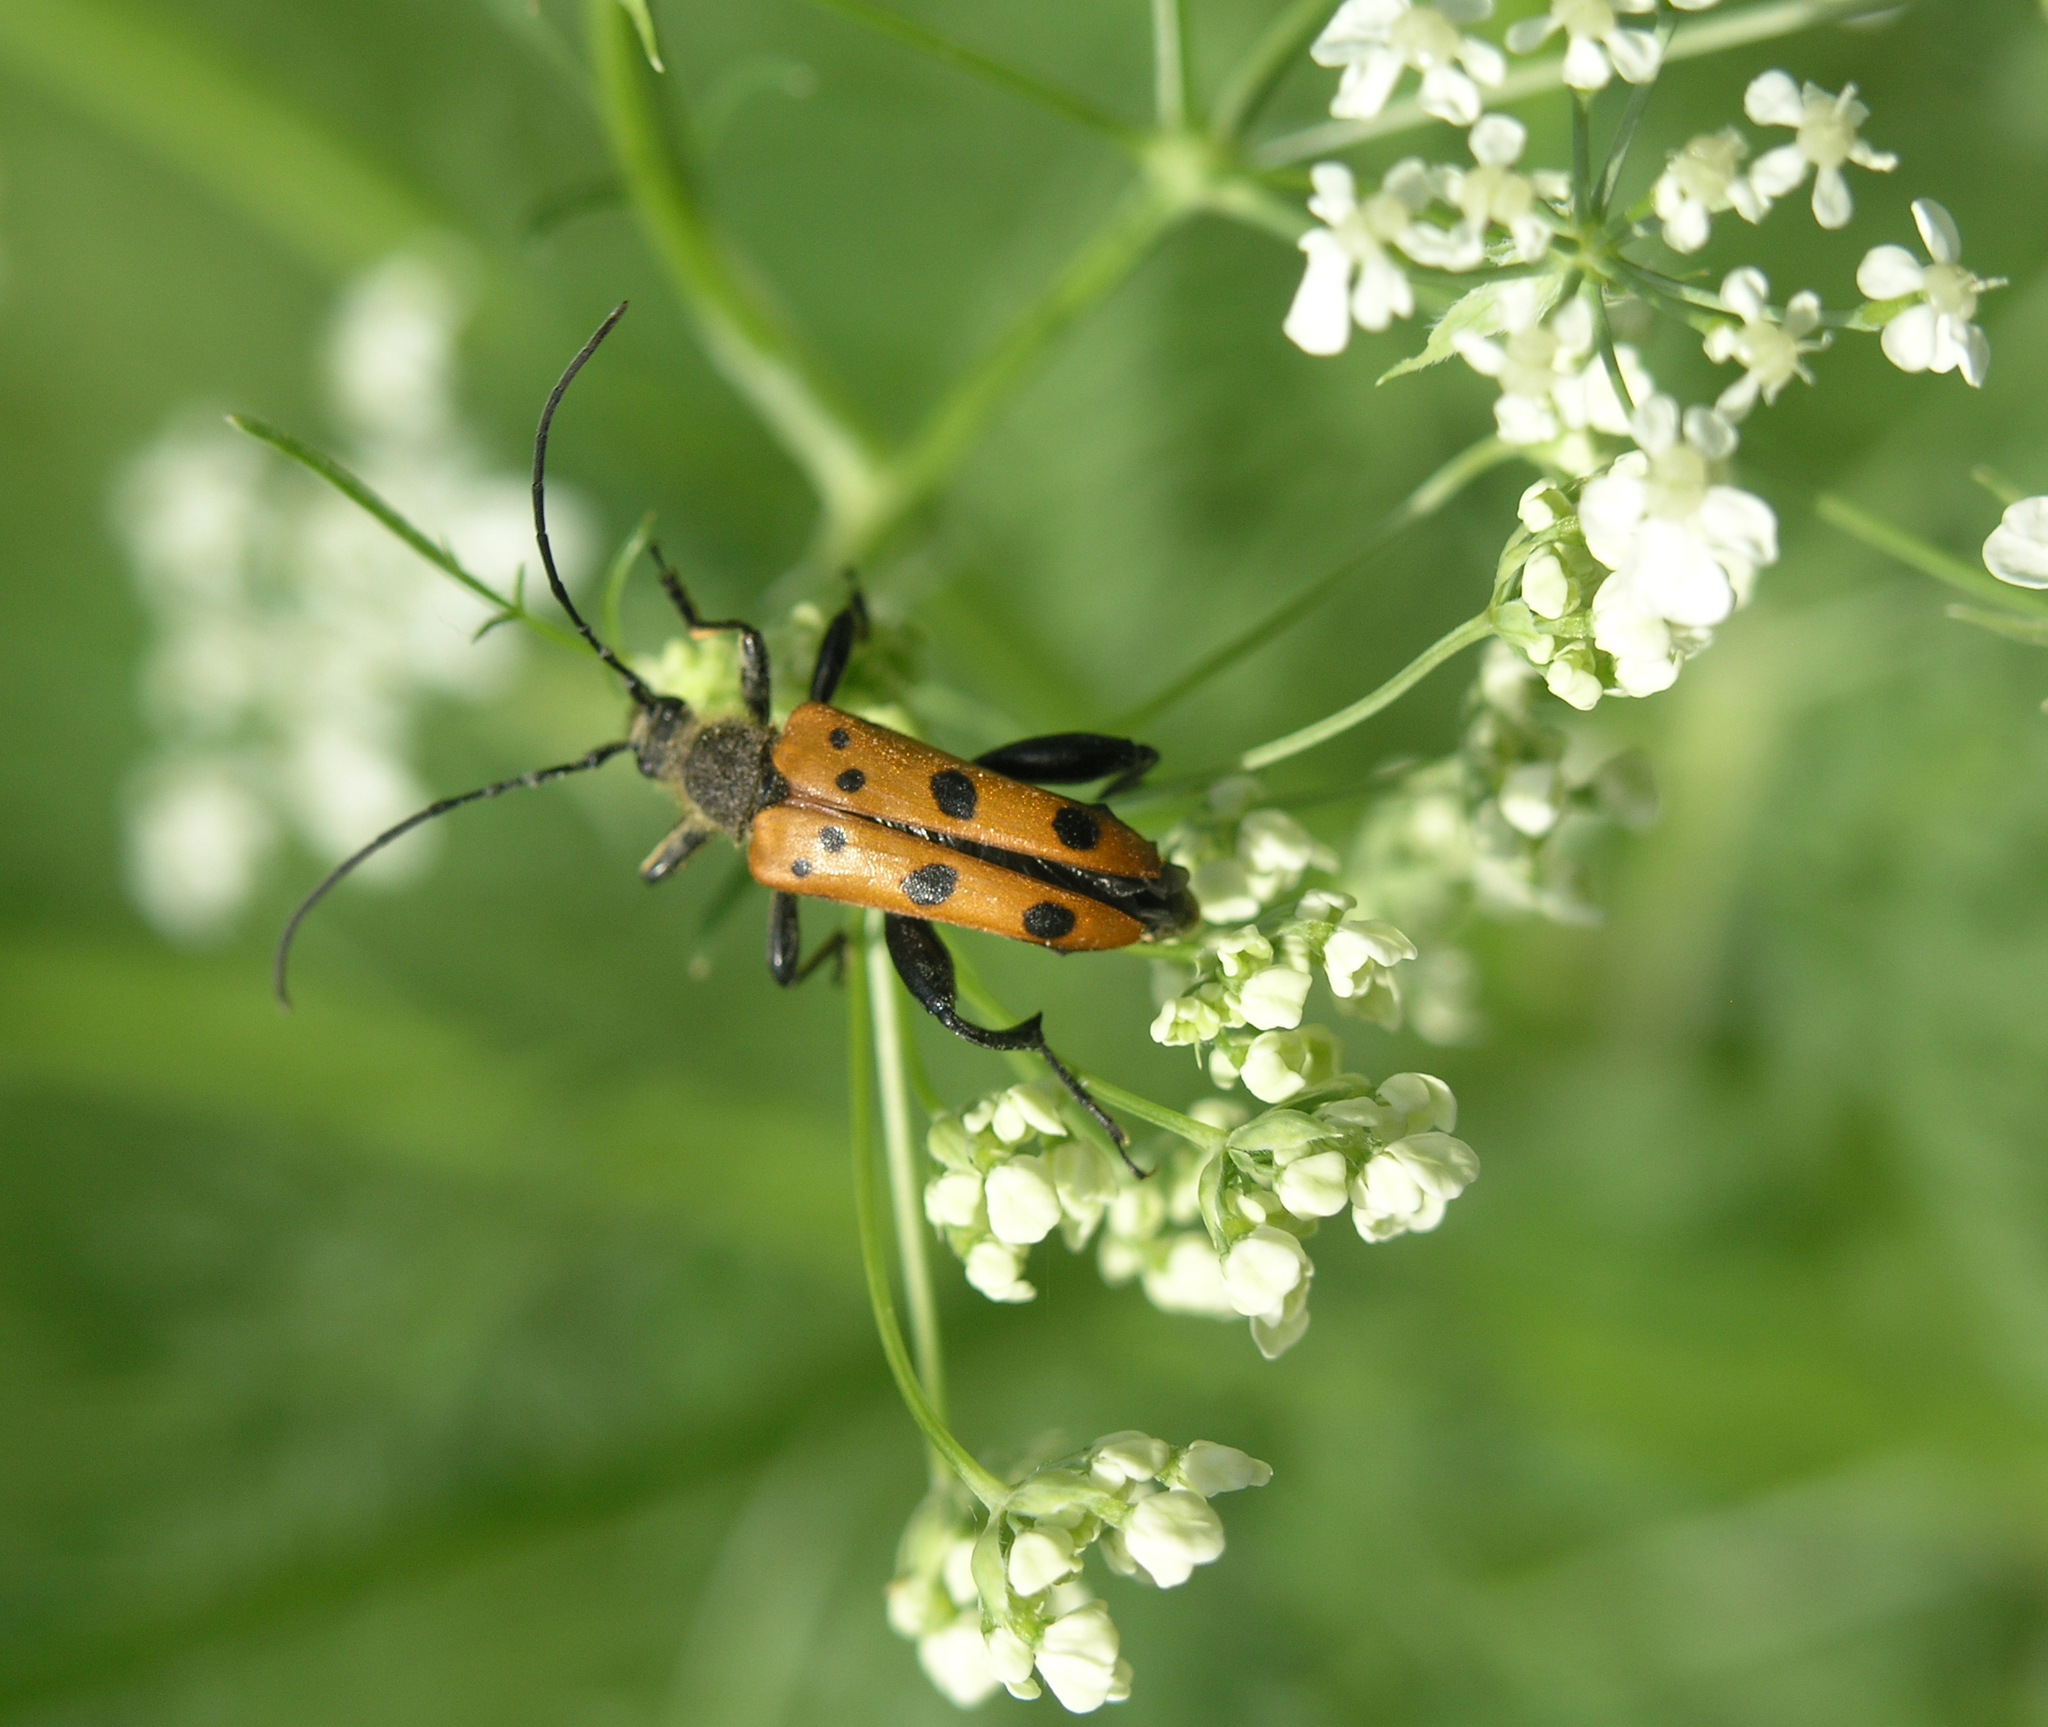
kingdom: Animalia
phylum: Arthropoda
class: Insecta
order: Coleoptera
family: Cerambycidae
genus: Oedecnema
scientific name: Oedecnema gebleri
